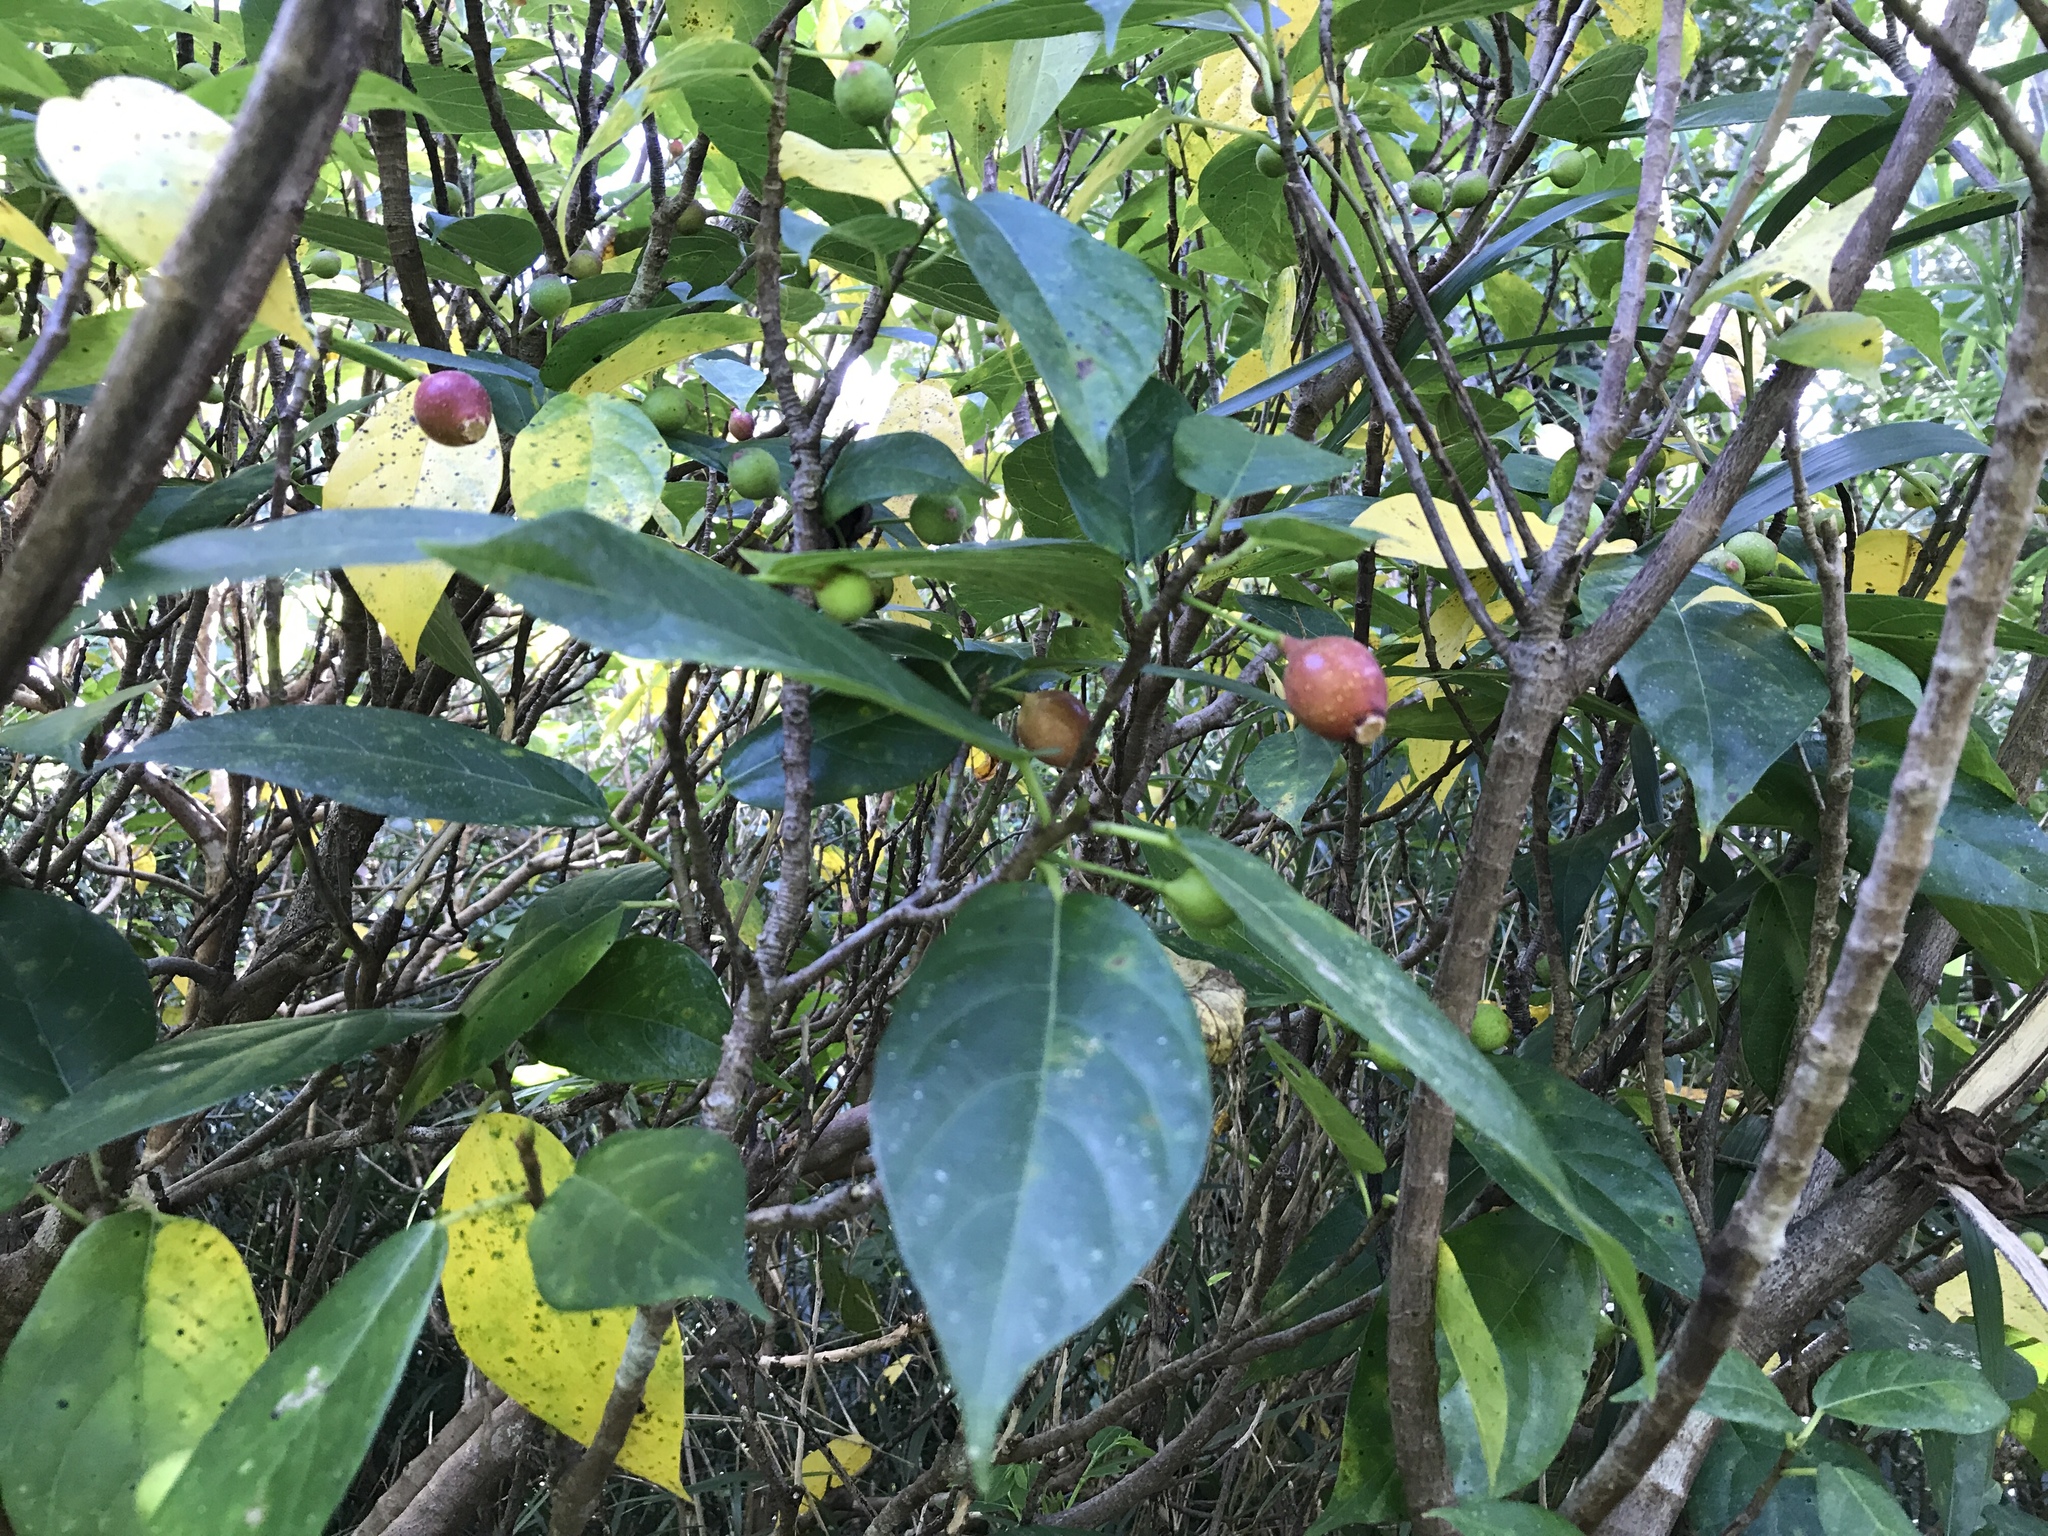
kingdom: Plantae
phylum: Tracheophyta
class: Magnoliopsida
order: Rosales
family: Moraceae
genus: Ficus
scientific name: Ficus erecta
